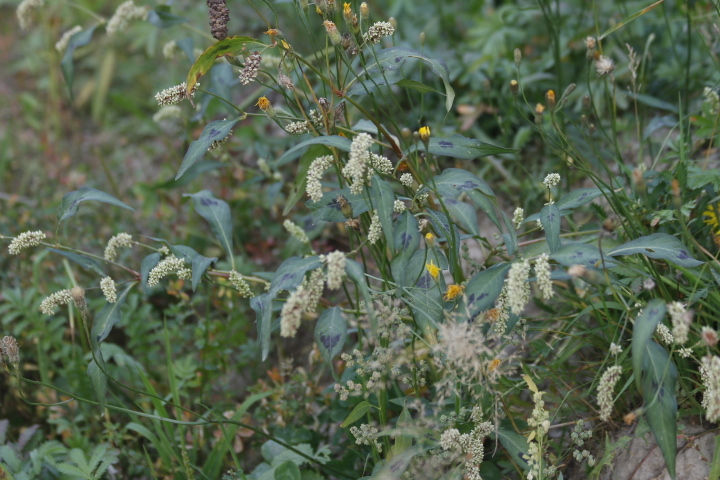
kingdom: Plantae
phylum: Tracheophyta
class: Magnoliopsida
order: Caryophyllales
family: Polygonaceae
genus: Persicaria
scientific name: Persicaria lapathifolia
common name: Curlytop knotweed
